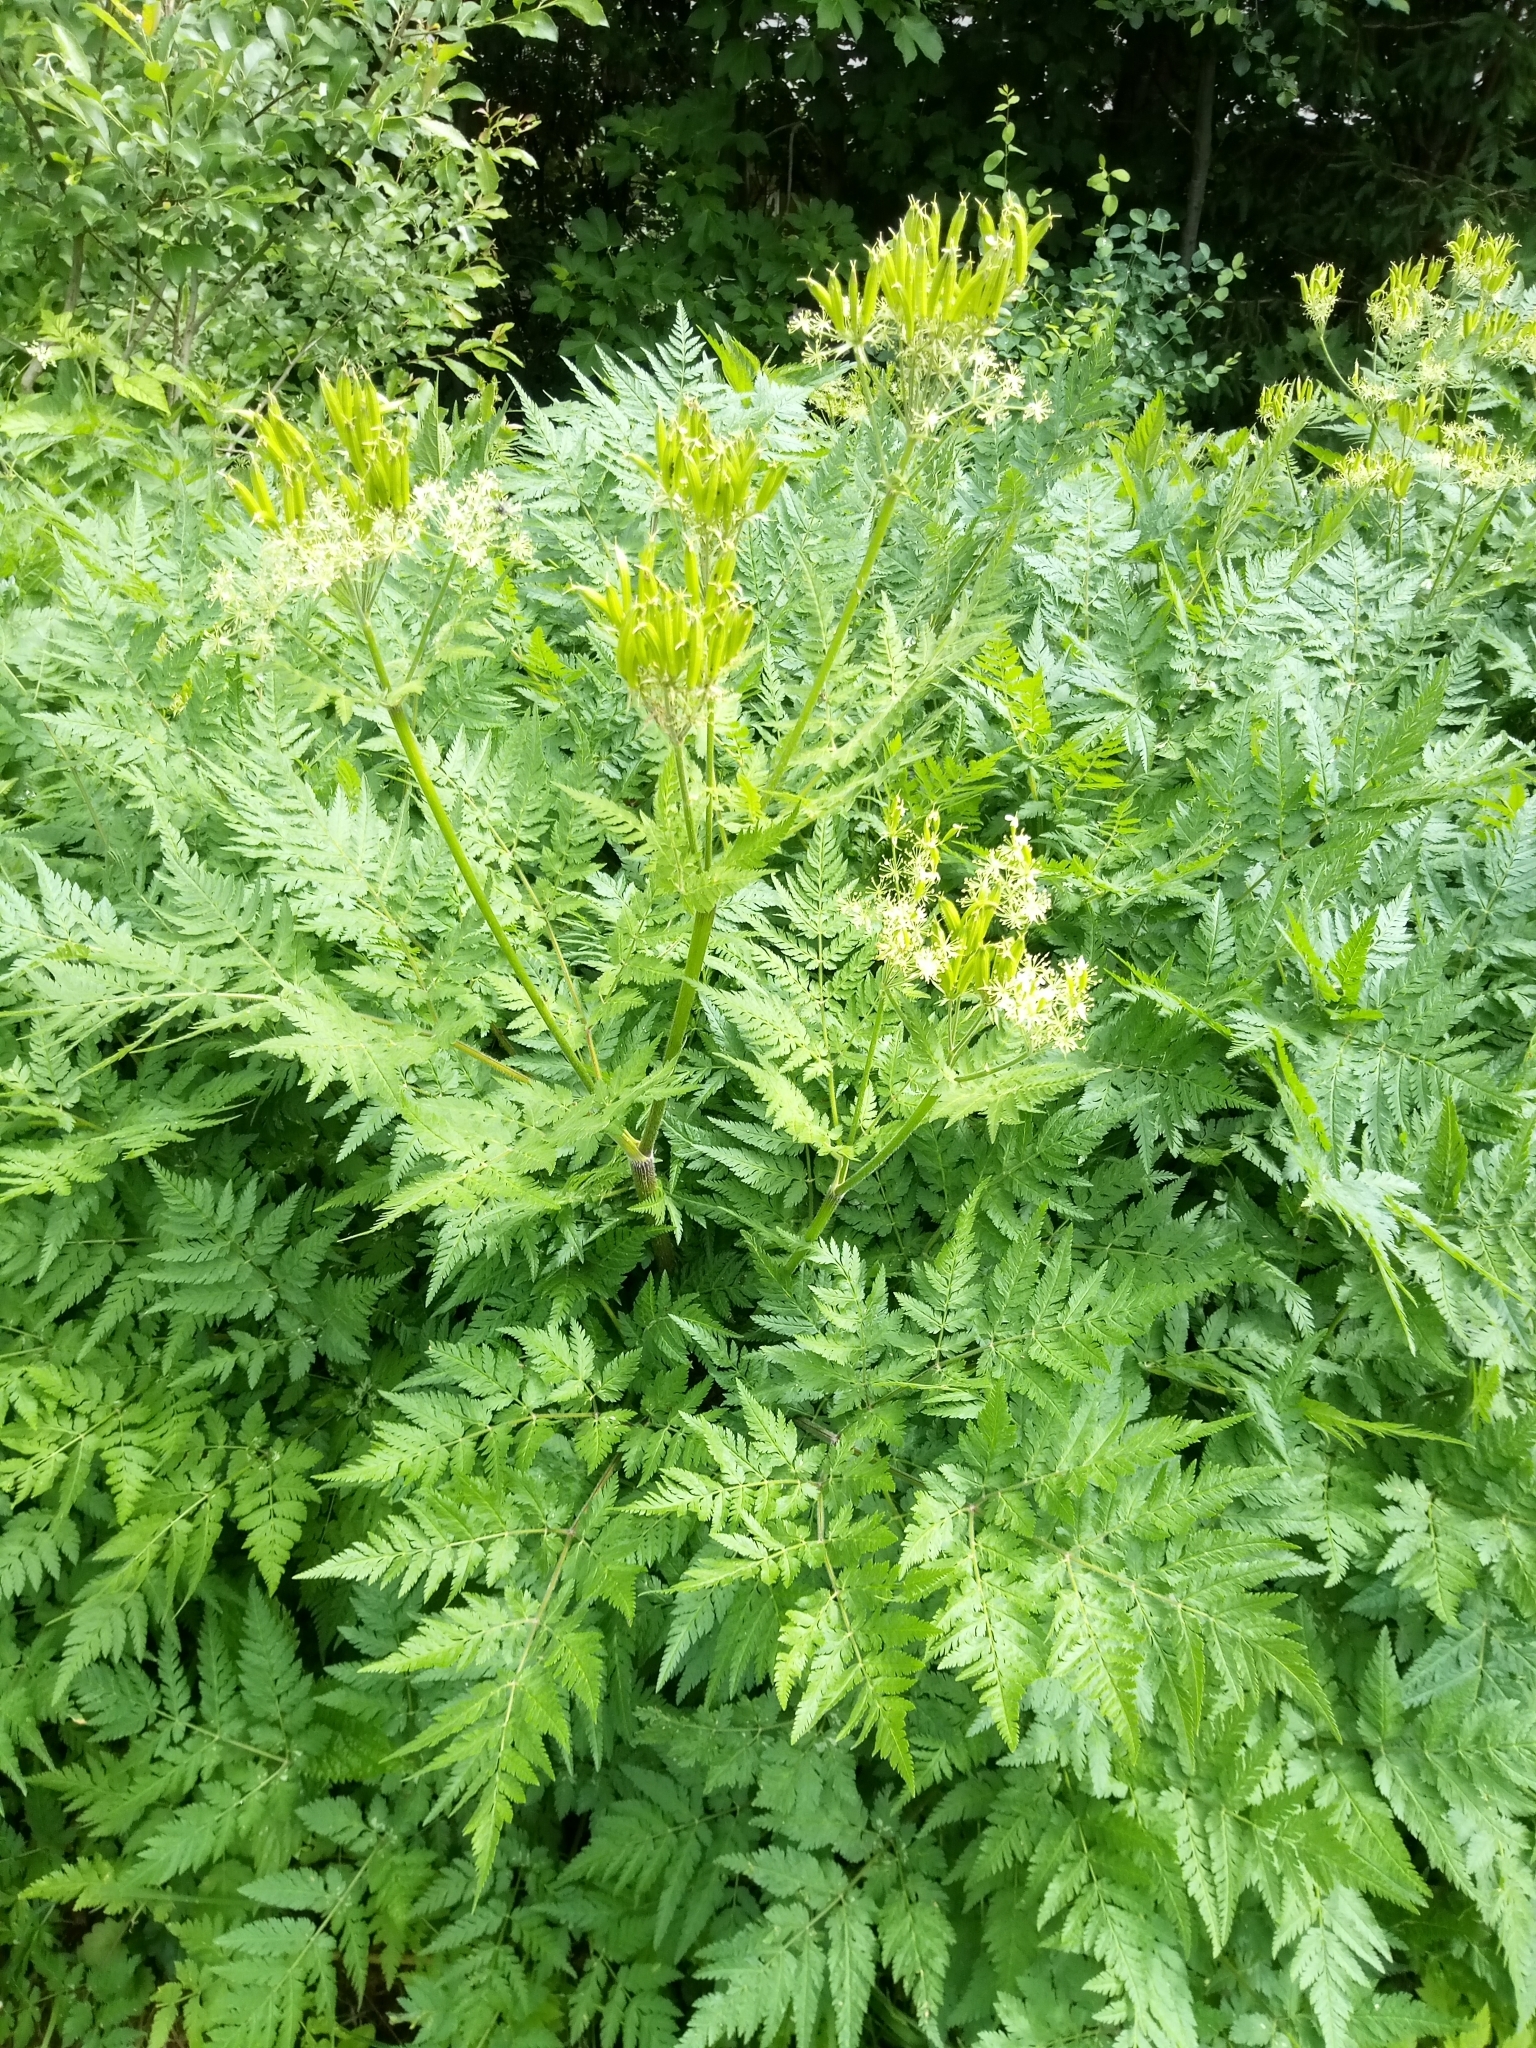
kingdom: Plantae
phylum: Tracheophyta
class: Magnoliopsida
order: Apiales
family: Apiaceae
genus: Myrrhis
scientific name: Myrrhis odorata
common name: Sweet cicely
